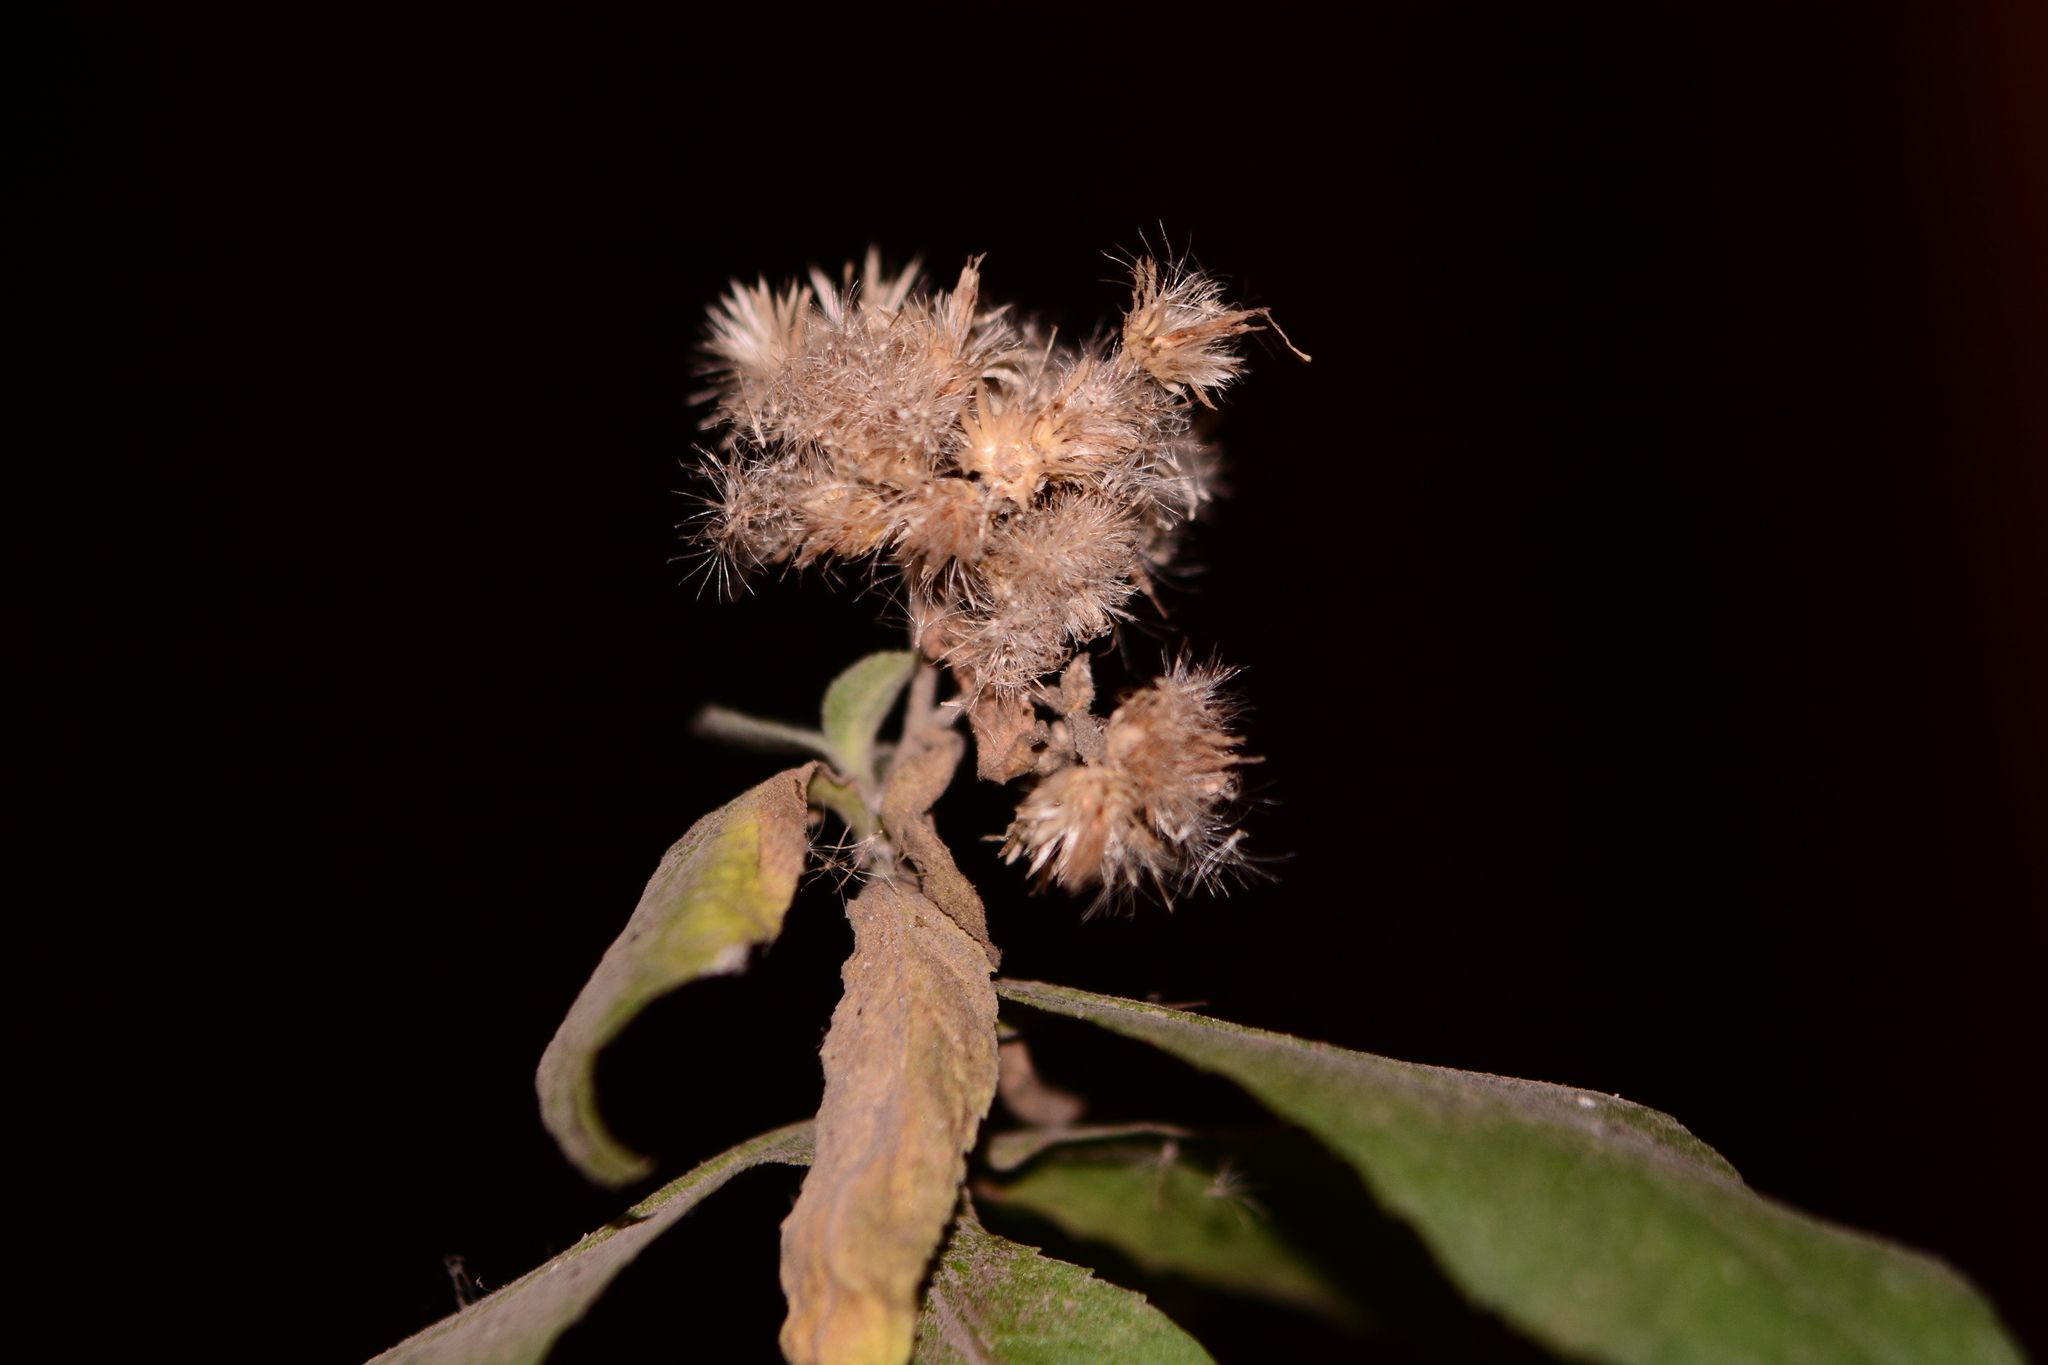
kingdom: Plantae
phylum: Tracheophyta
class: Magnoliopsida
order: Asterales
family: Asteraceae
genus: Pluchea
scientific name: Pluchea ovalis
